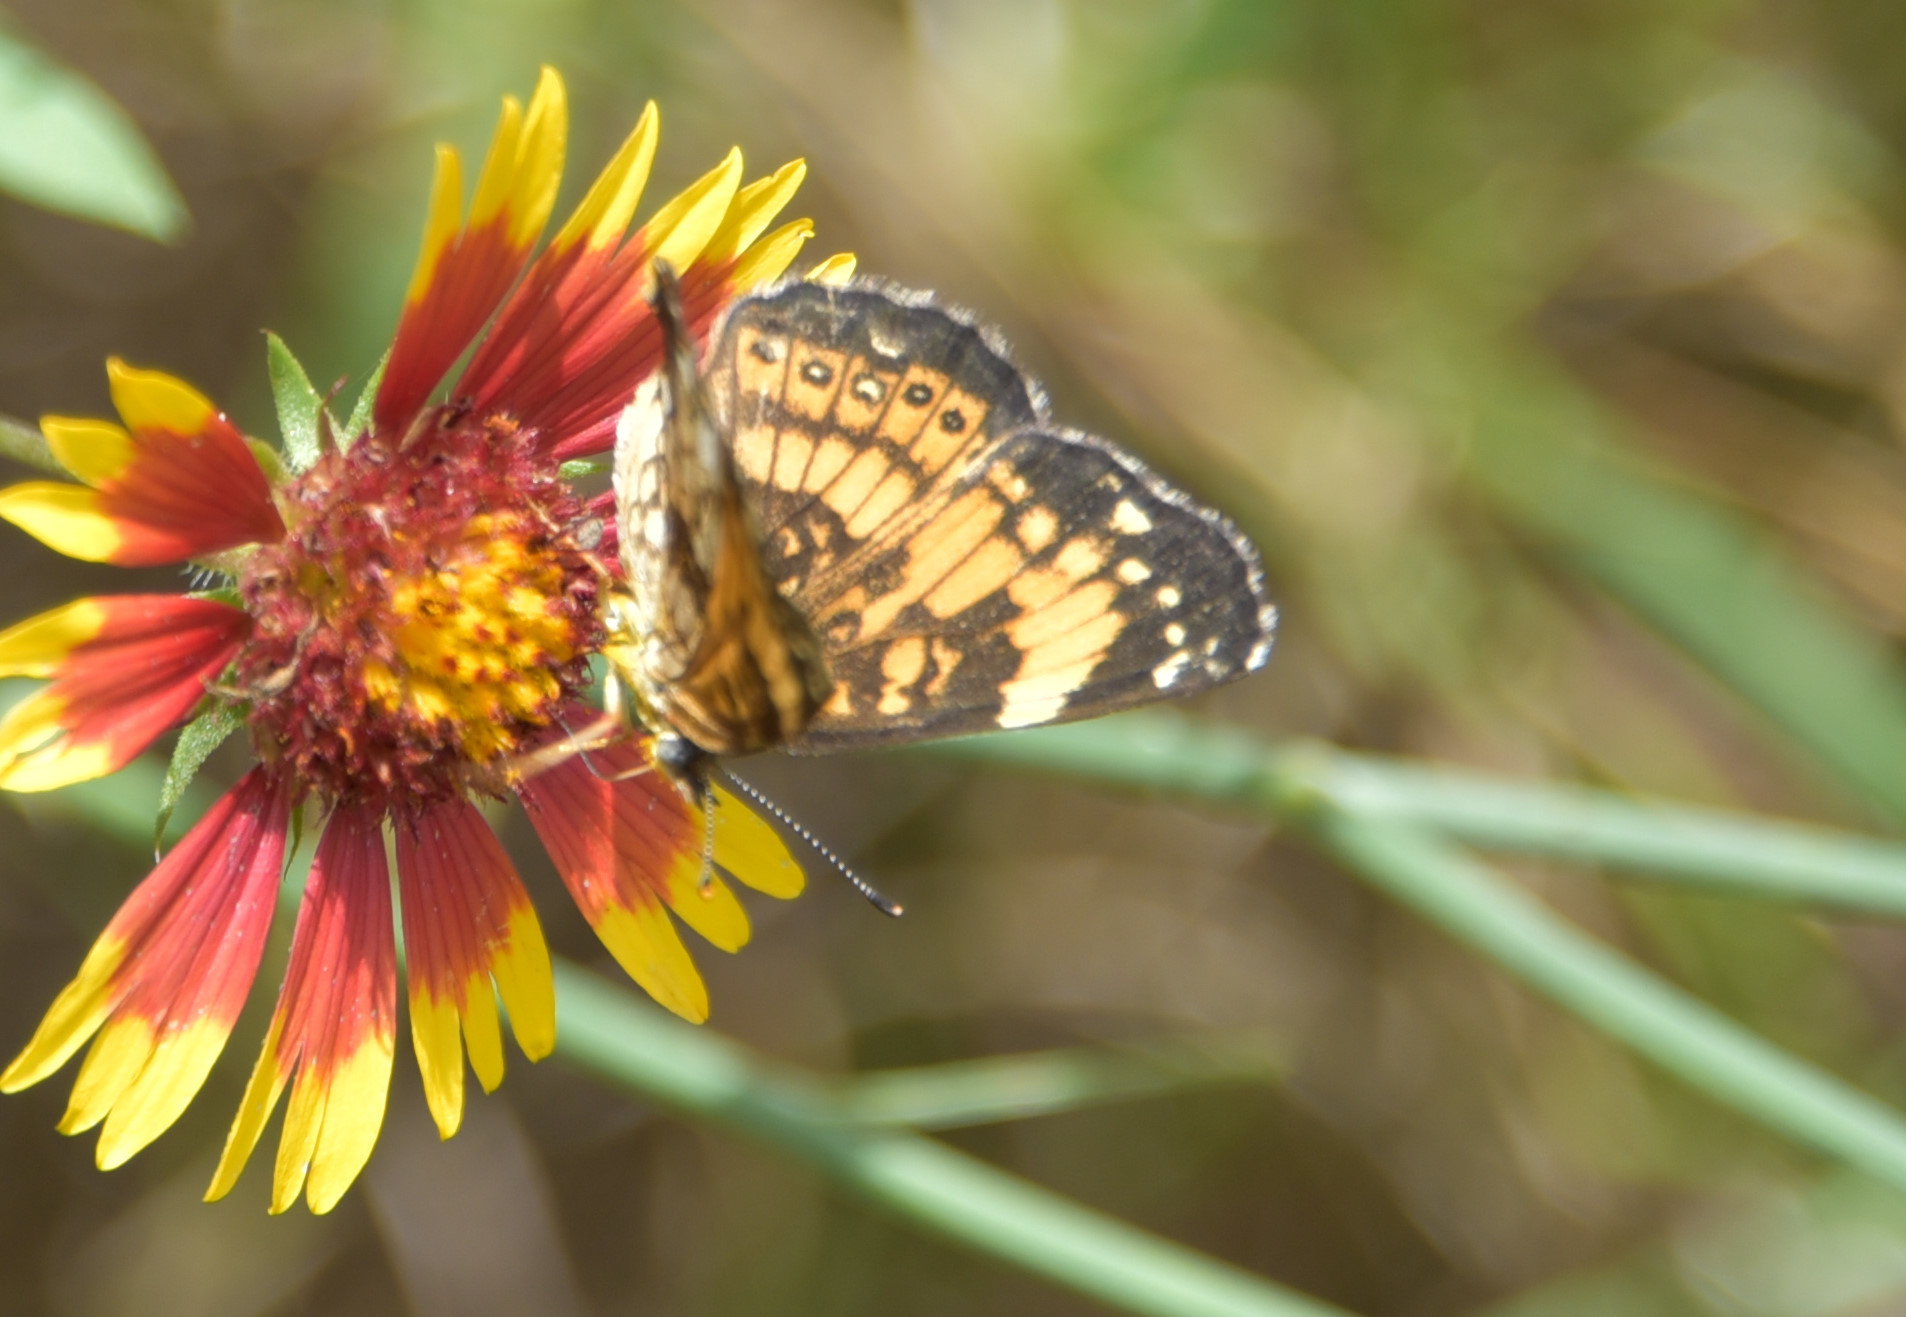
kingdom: Animalia
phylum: Arthropoda
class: Insecta
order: Lepidoptera
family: Nymphalidae
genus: Chlosyne
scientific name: Chlosyne nycteis
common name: Silvery checkerspot
